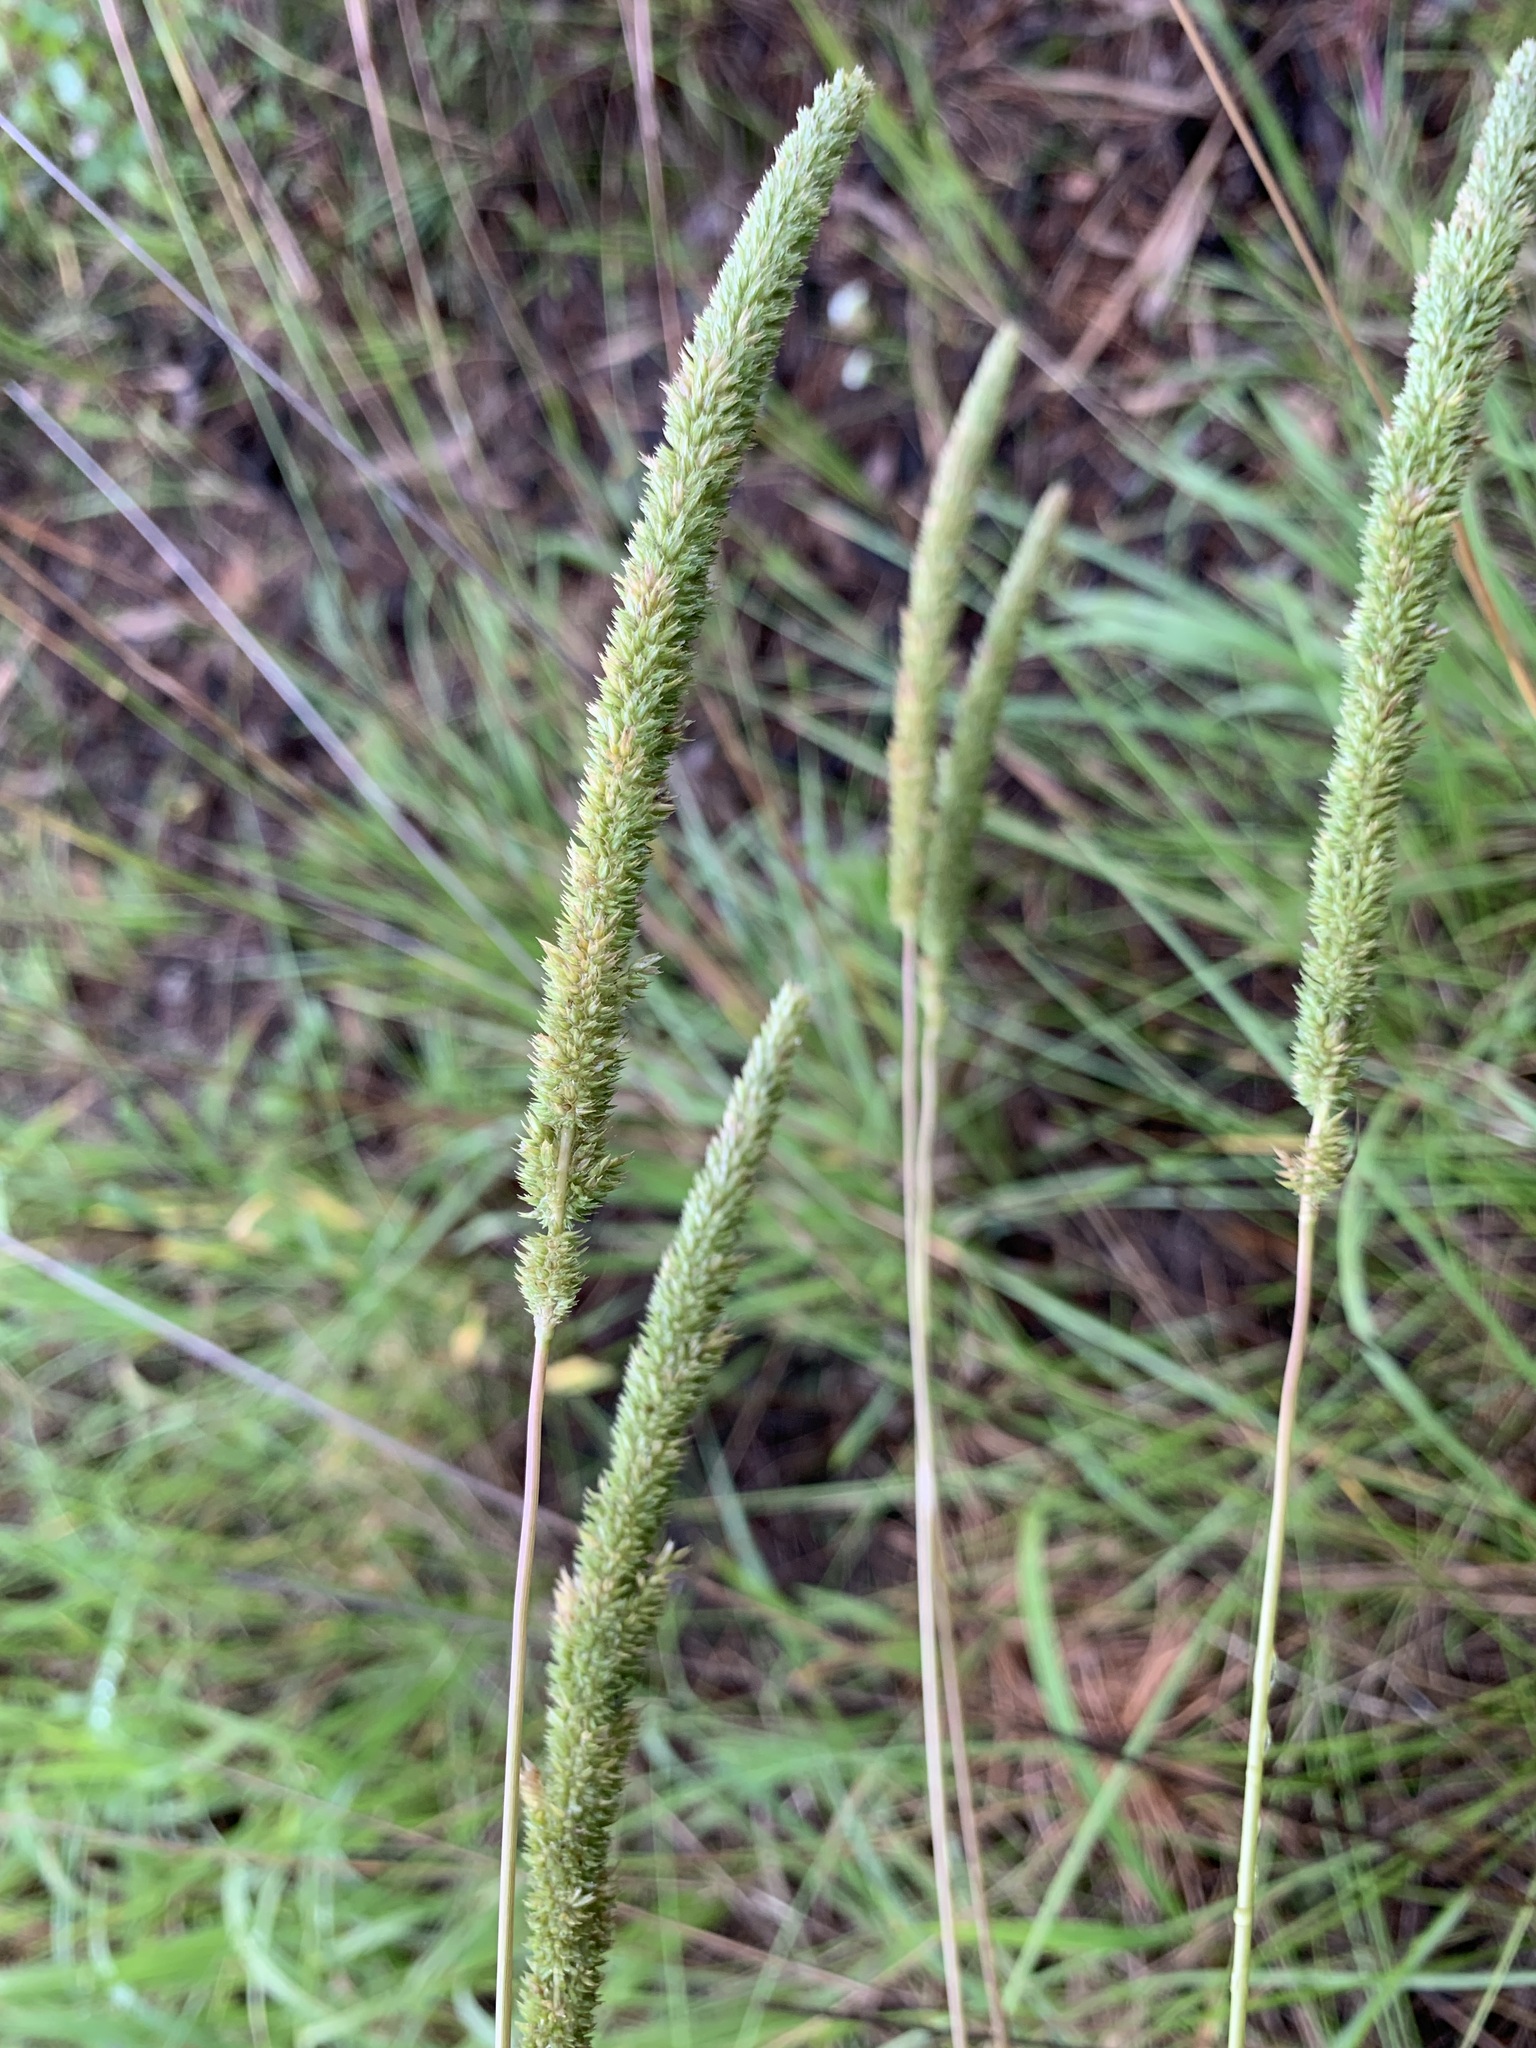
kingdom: Plantae
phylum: Tracheophyta
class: Liliopsida
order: Poales
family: Poaceae
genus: Phleum
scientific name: Phleum phleoides
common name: Purple-stem cat's-tail
